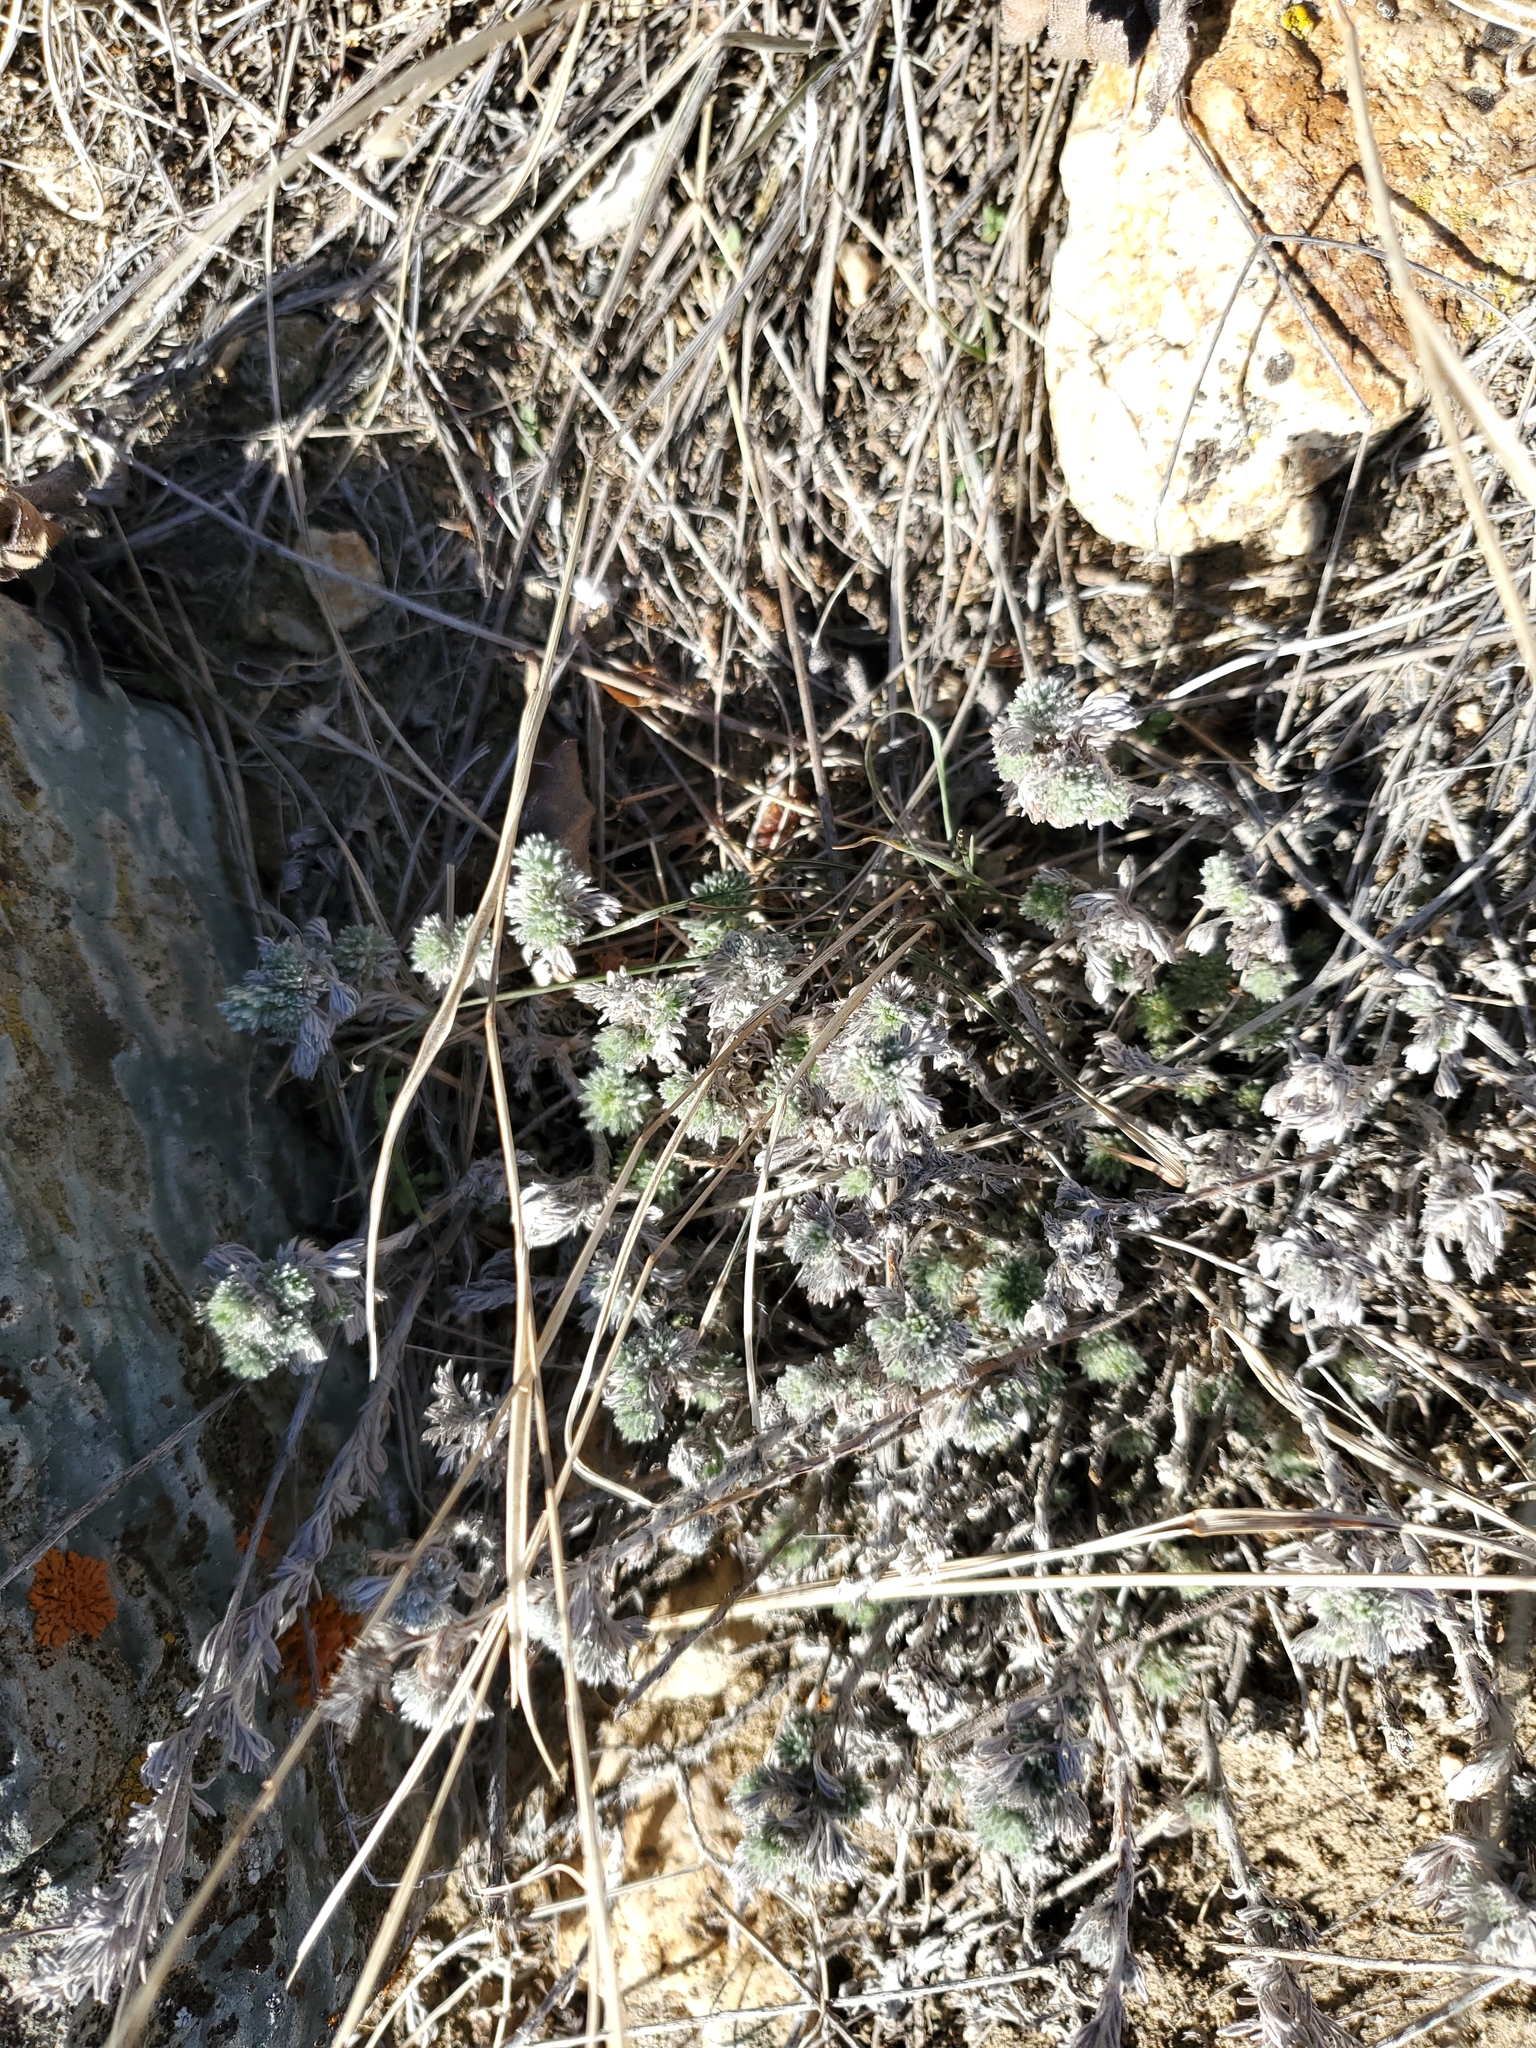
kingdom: Plantae
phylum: Tracheophyta
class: Magnoliopsida
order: Asterales
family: Asteraceae
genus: Artemisia
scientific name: Artemisia frigida
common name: Prairie sagewort
